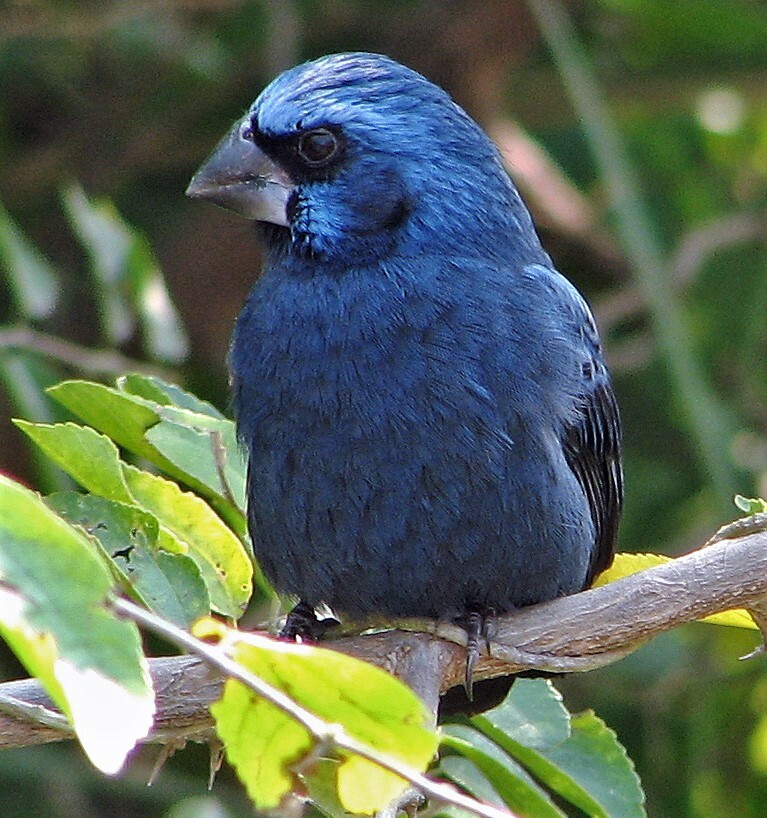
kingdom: Animalia
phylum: Chordata
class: Aves
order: Passeriformes
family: Cardinalidae
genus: Cyanoloxia
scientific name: Cyanoloxia brissonii
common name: Ultramarine grosbeak
